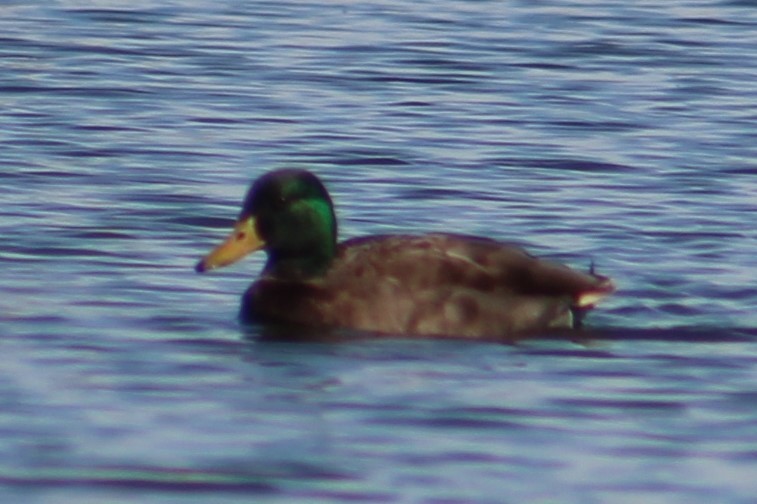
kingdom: Animalia
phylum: Chordata
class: Aves
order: Anseriformes
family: Anatidae
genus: Anas
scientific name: Anas platyrhynchos
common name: Mallard
